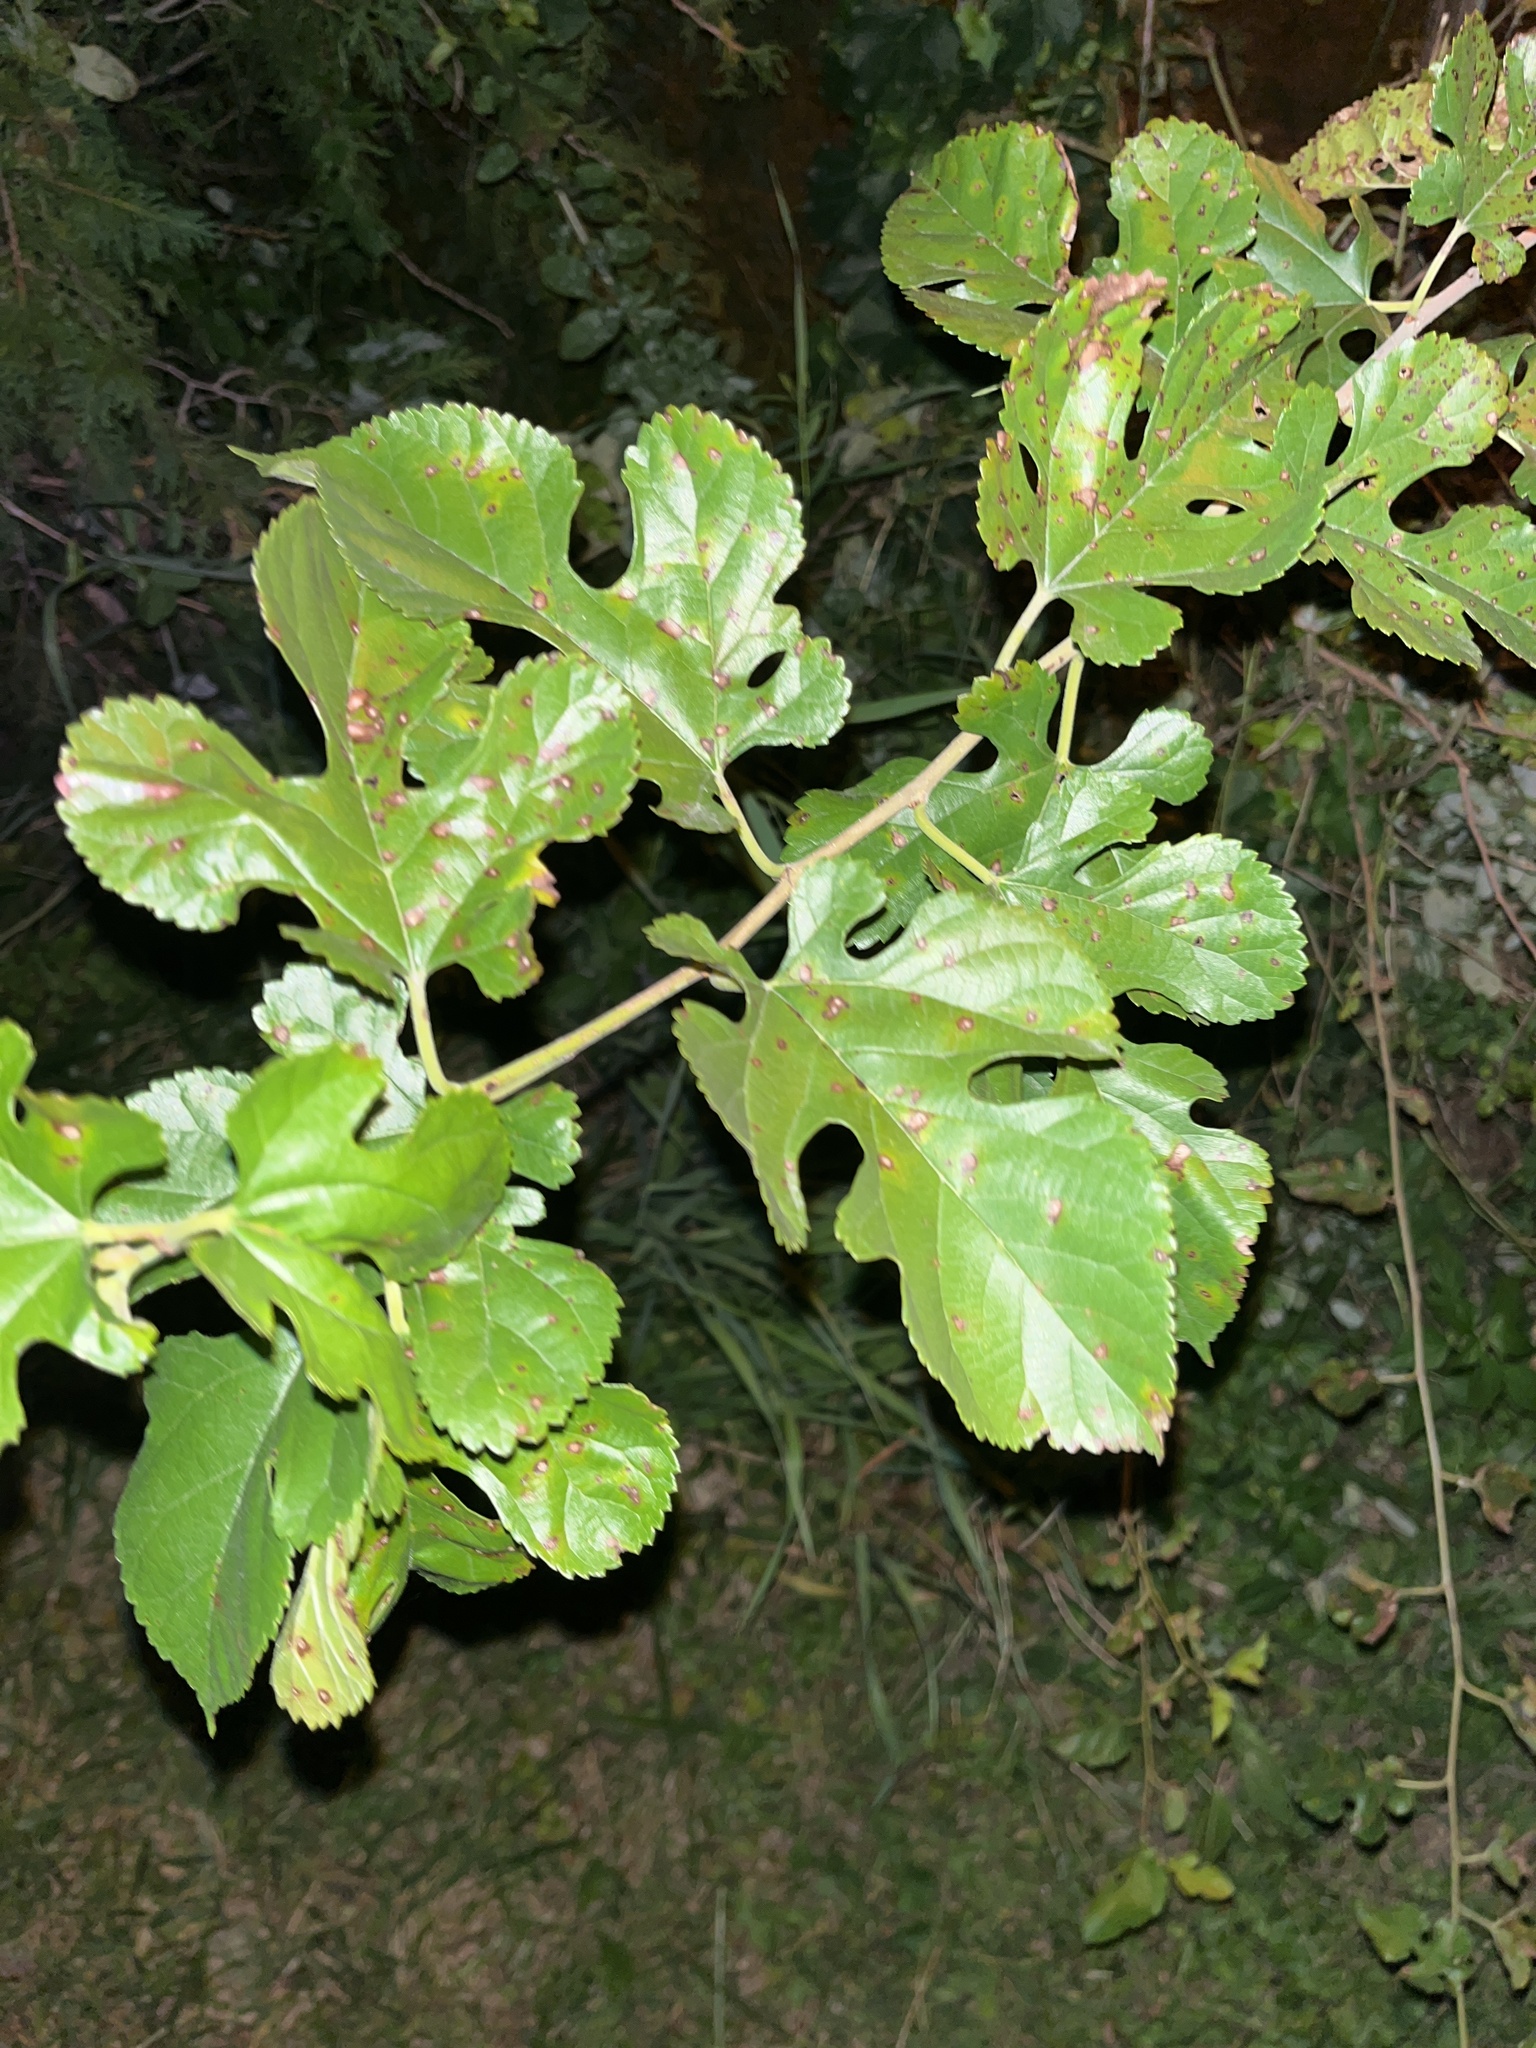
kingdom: Plantae
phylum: Tracheophyta
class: Magnoliopsida
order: Rosales
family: Moraceae
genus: Morus
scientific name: Morus alba
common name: White mulberry
